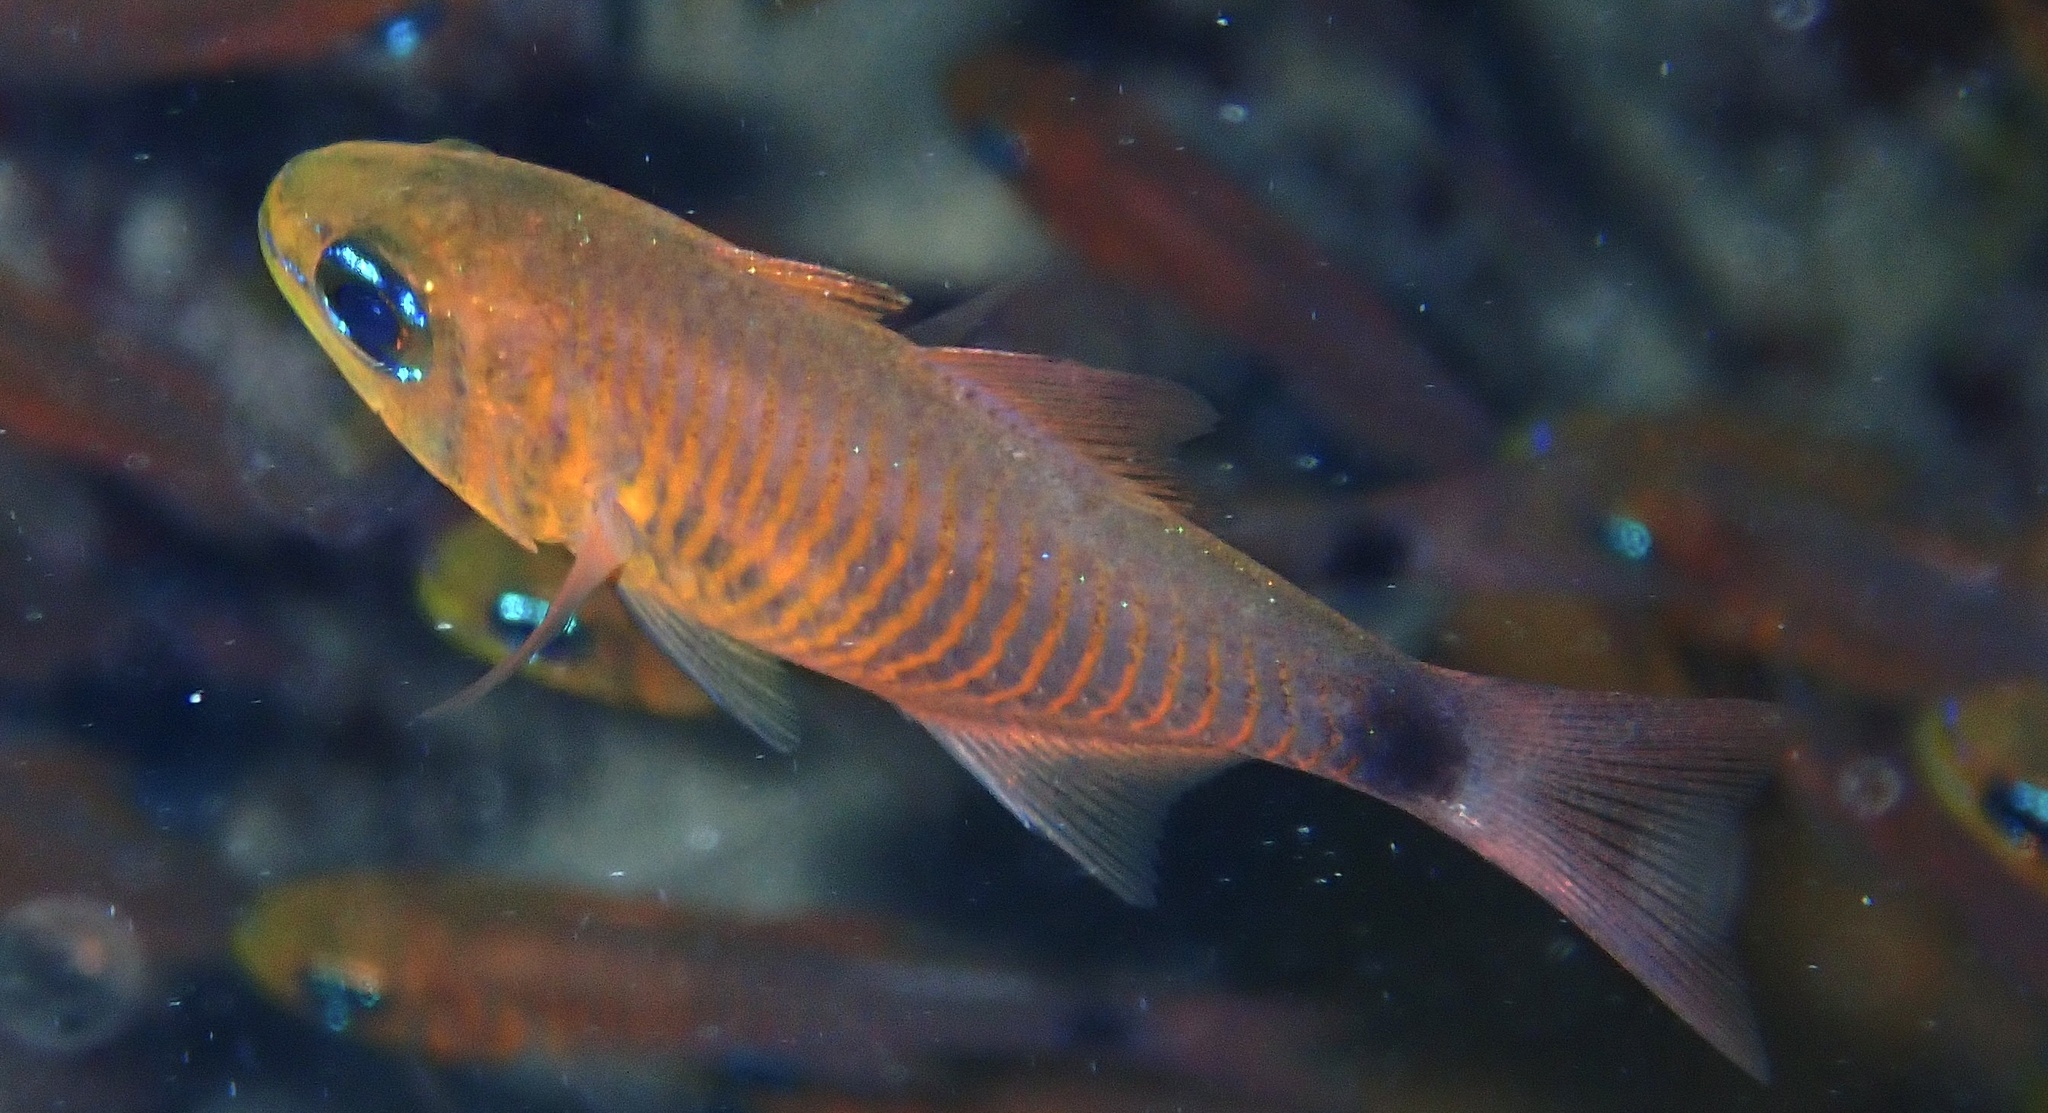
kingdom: Animalia
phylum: Chordata
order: Perciformes
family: Apogonidae
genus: Taeniamia
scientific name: Taeniamia fucata
